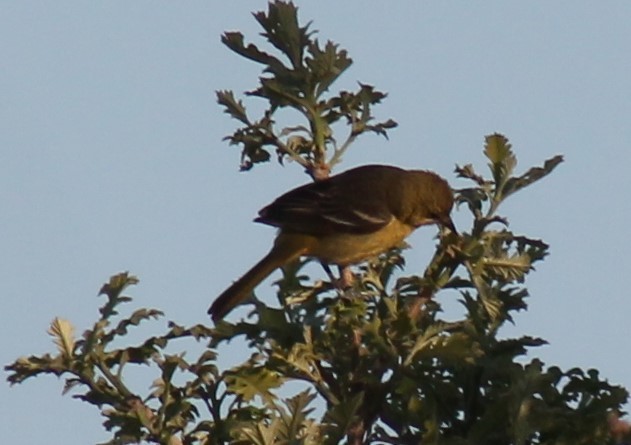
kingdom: Animalia
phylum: Chordata
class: Aves
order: Passeriformes
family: Icteridae
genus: Icterus
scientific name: Icterus spurius
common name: Orchard oriole
